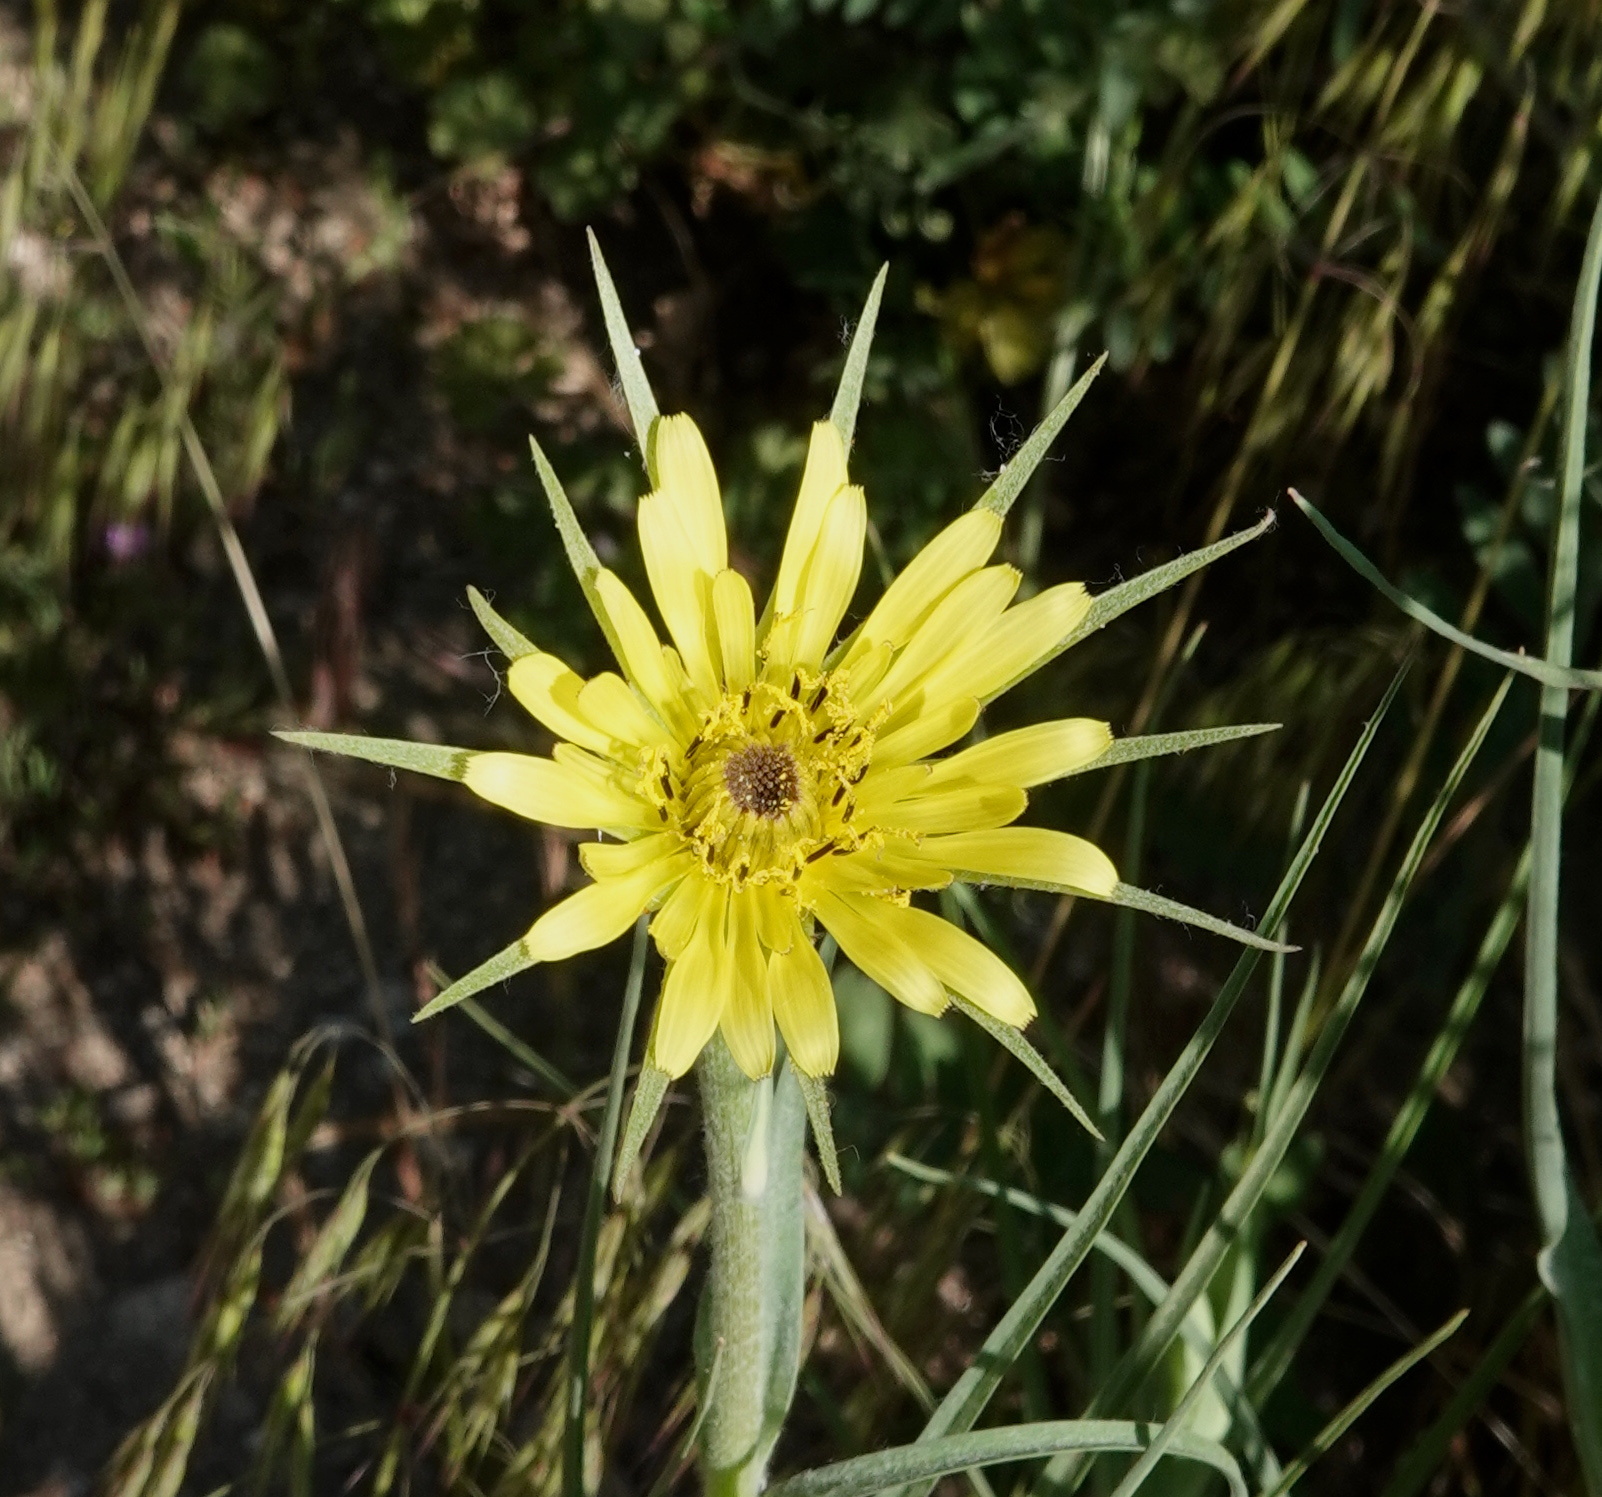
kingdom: Plantae
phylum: Tracheophyta
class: Magnoliopsida
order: Asterales
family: Asteraceae
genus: Tragopogon
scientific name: Tragopogon dubius
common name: Yellow salsify
